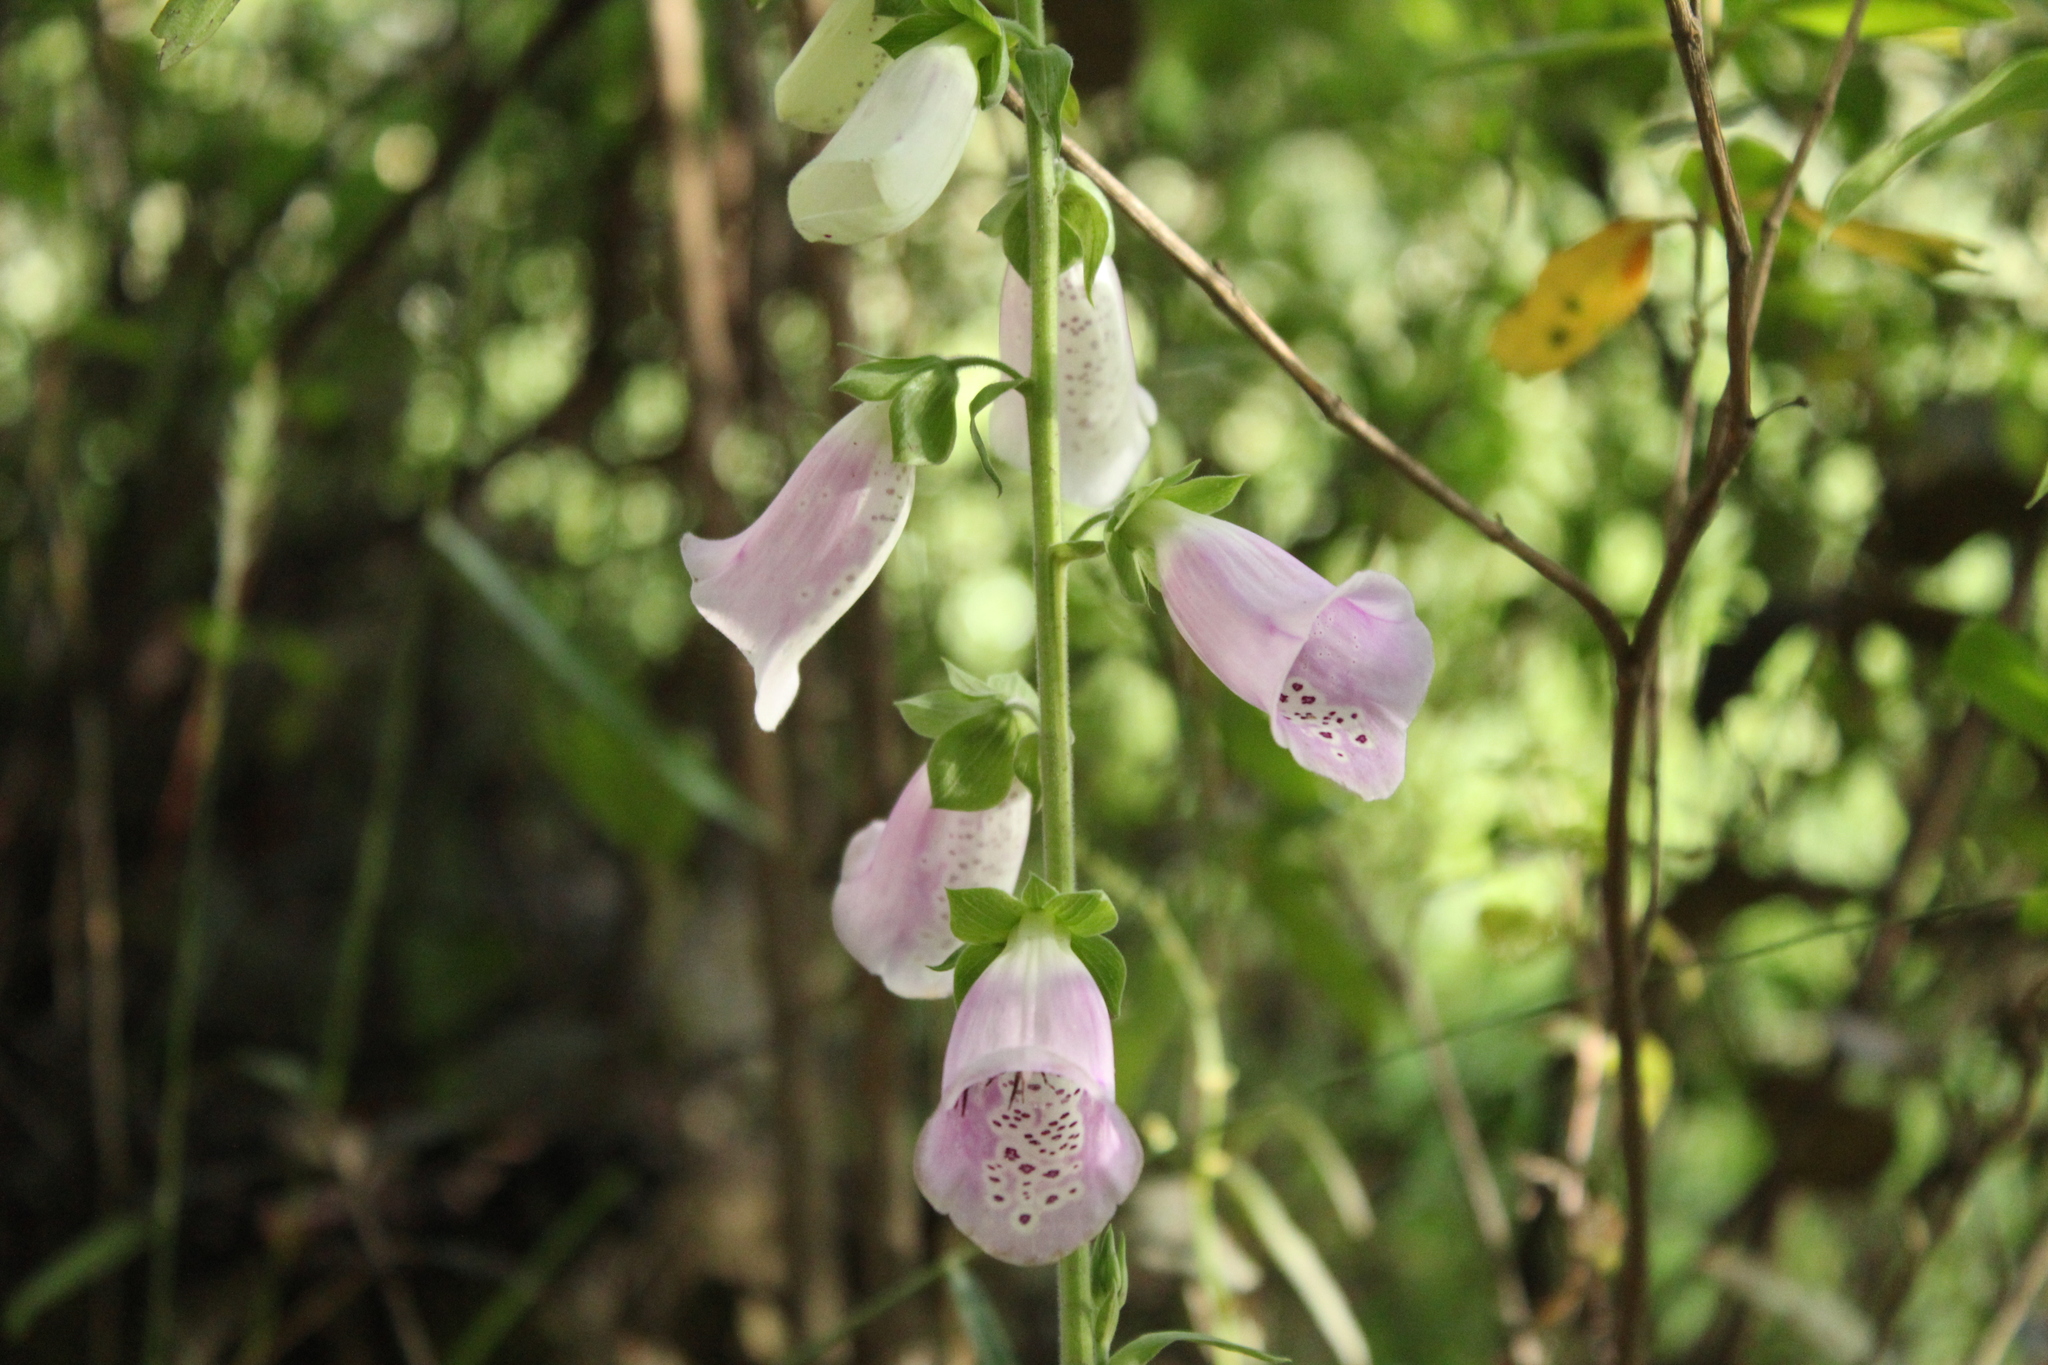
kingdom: Plantae
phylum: Tracheophyta
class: Magnoliopsida
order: Lamiales
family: Plantaginaceae
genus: Digitalis
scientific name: Digitalis purpurea
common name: Foxglove
